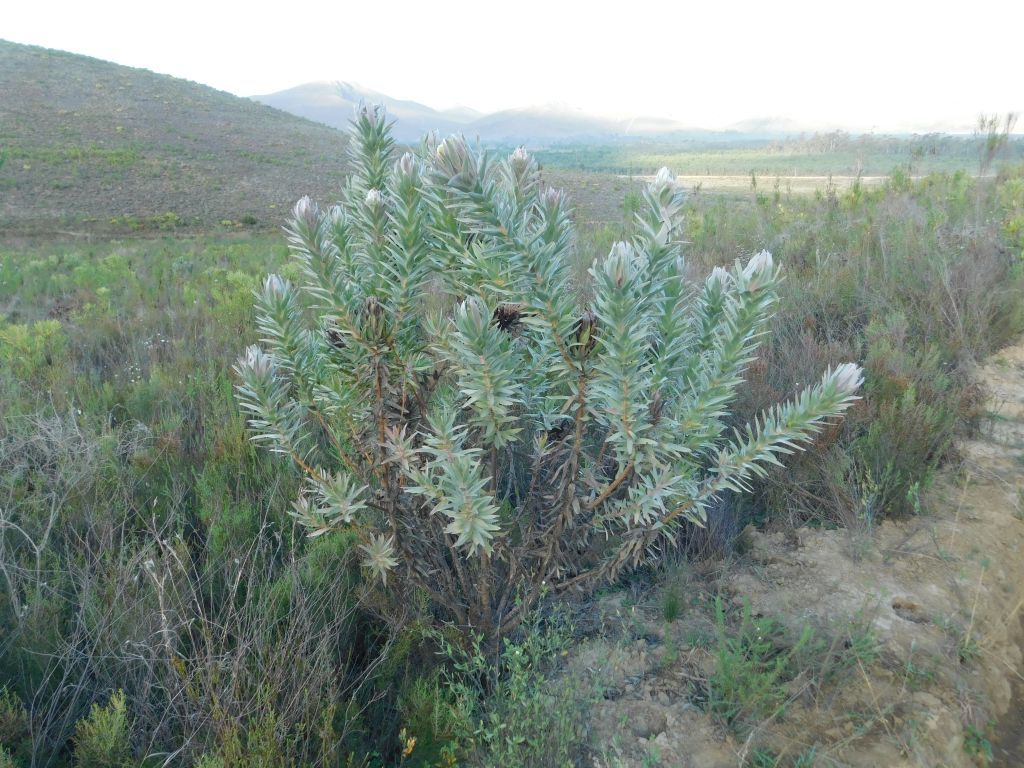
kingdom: Plantae
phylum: Tracheophyta
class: Magnoliopsida
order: Proteales
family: Proteaceae
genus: Protea
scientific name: Protea coronata
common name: Green sugarbush
